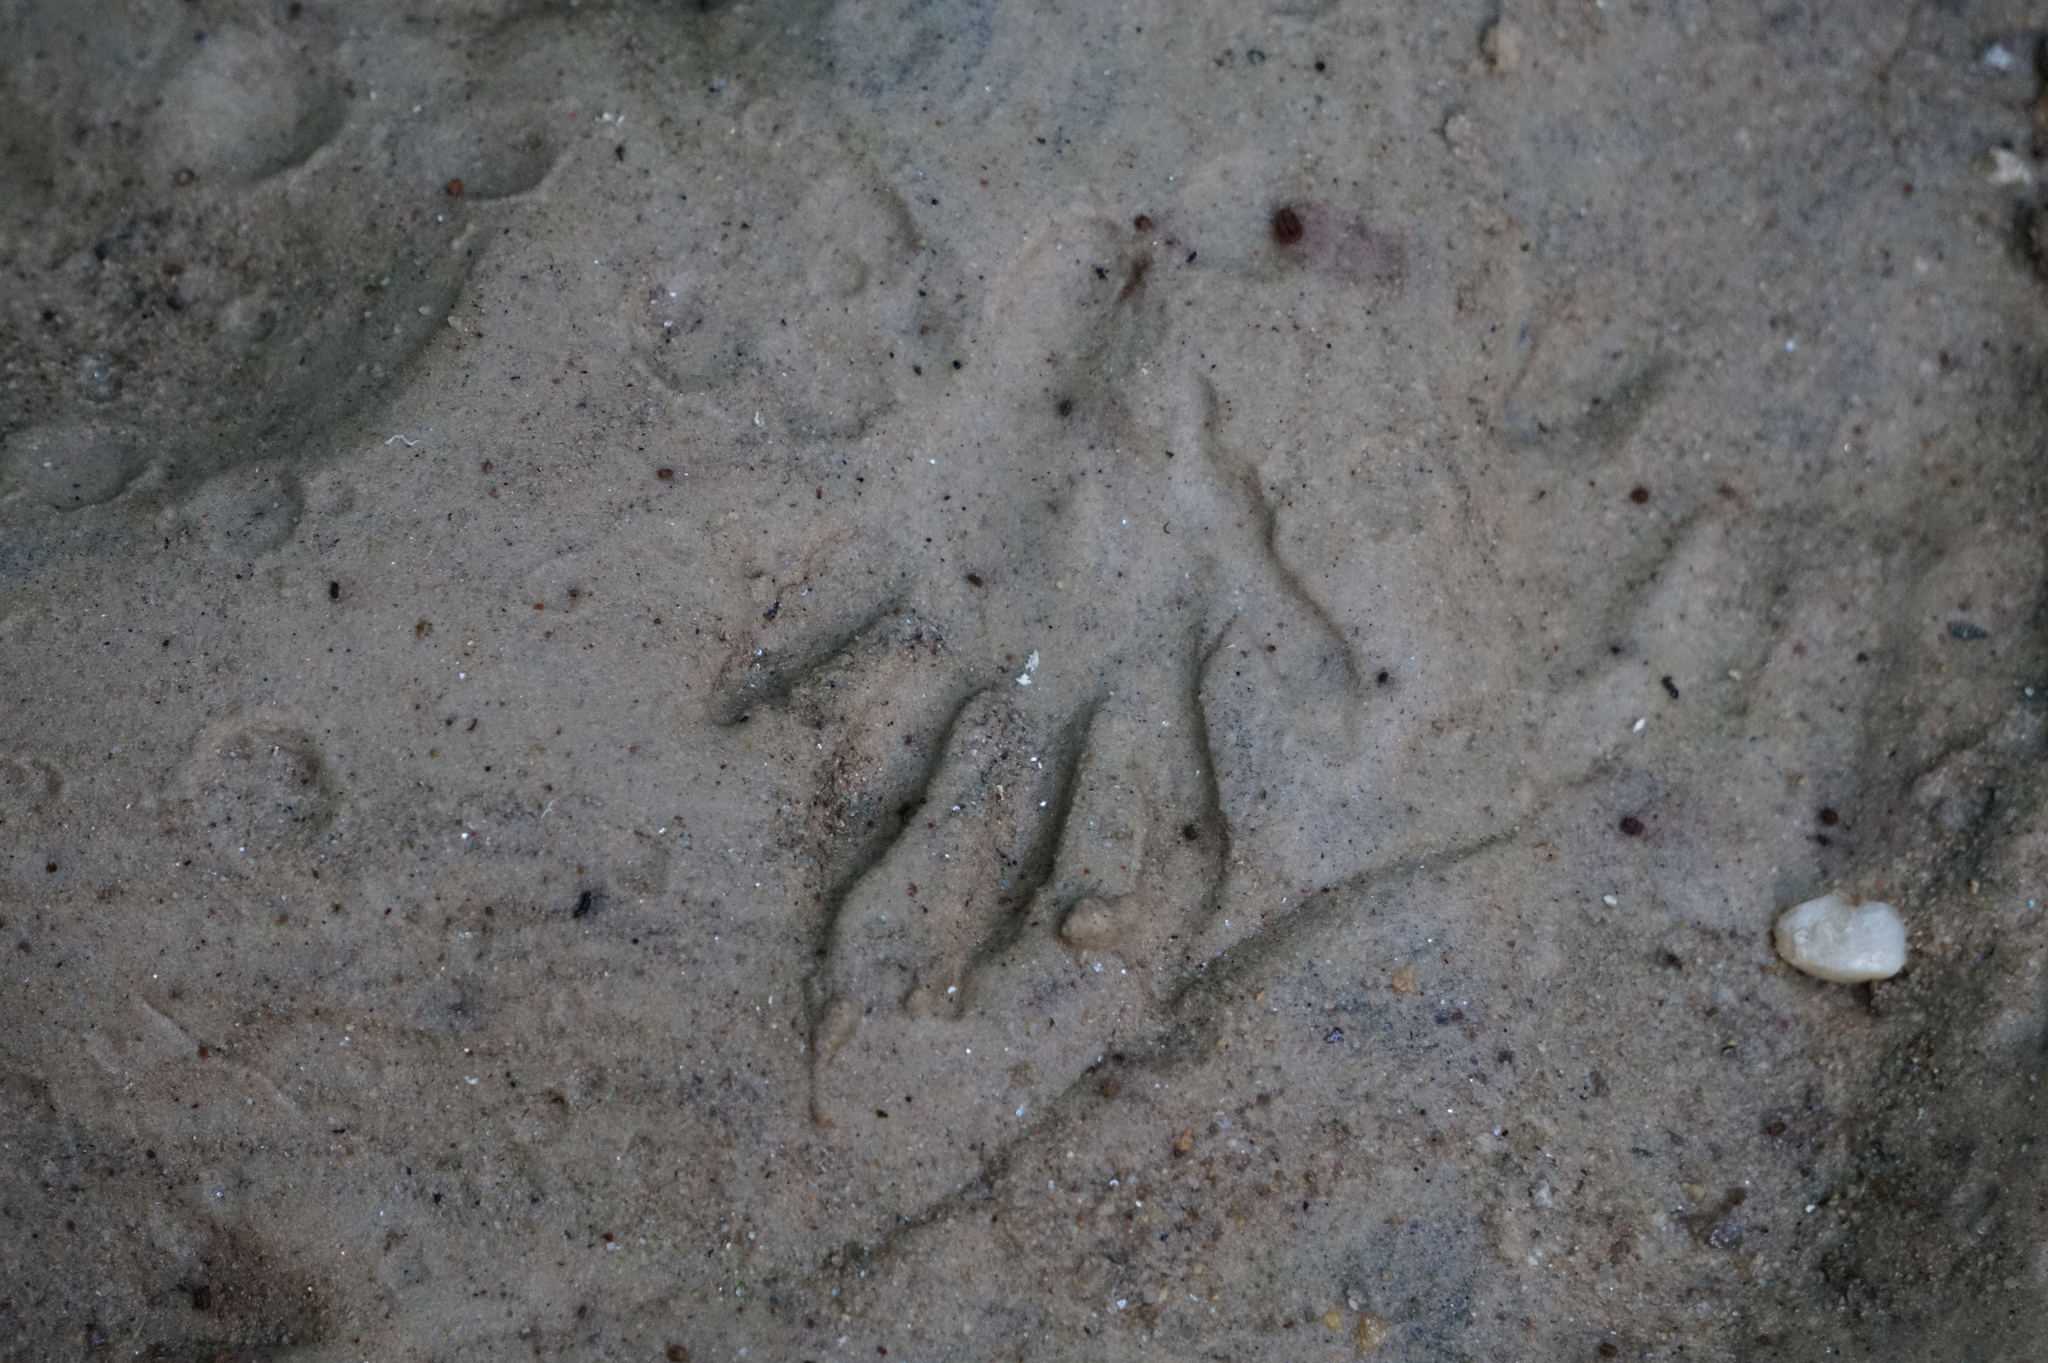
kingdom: Animalia
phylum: Chordata
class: Mammalia
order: Carnivora
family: Procyonidae
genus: Procyon
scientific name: Procyon lotor
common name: Raccoon
